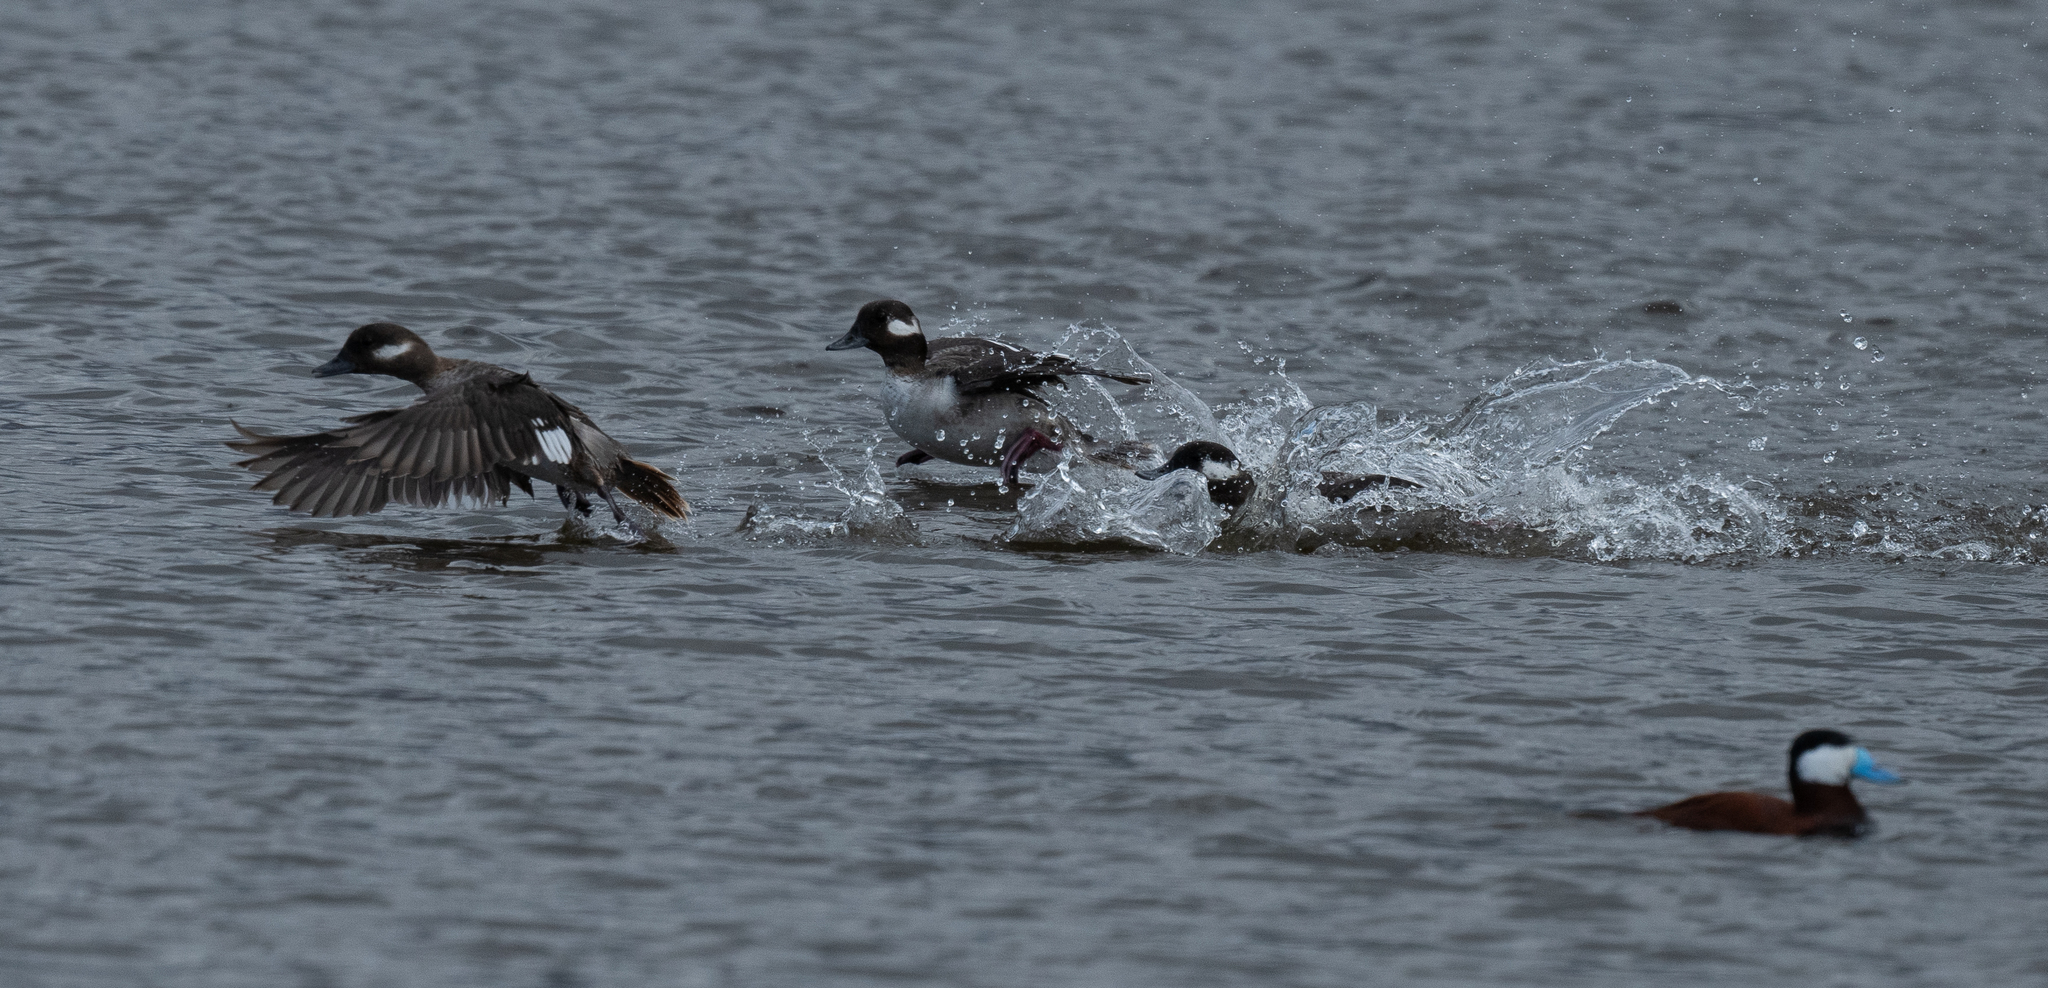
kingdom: Animalia
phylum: Chordata
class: Aves
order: Anseriformes
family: Anatidae
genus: Bucephala
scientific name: Bucephala albeola
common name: Bufflehead
